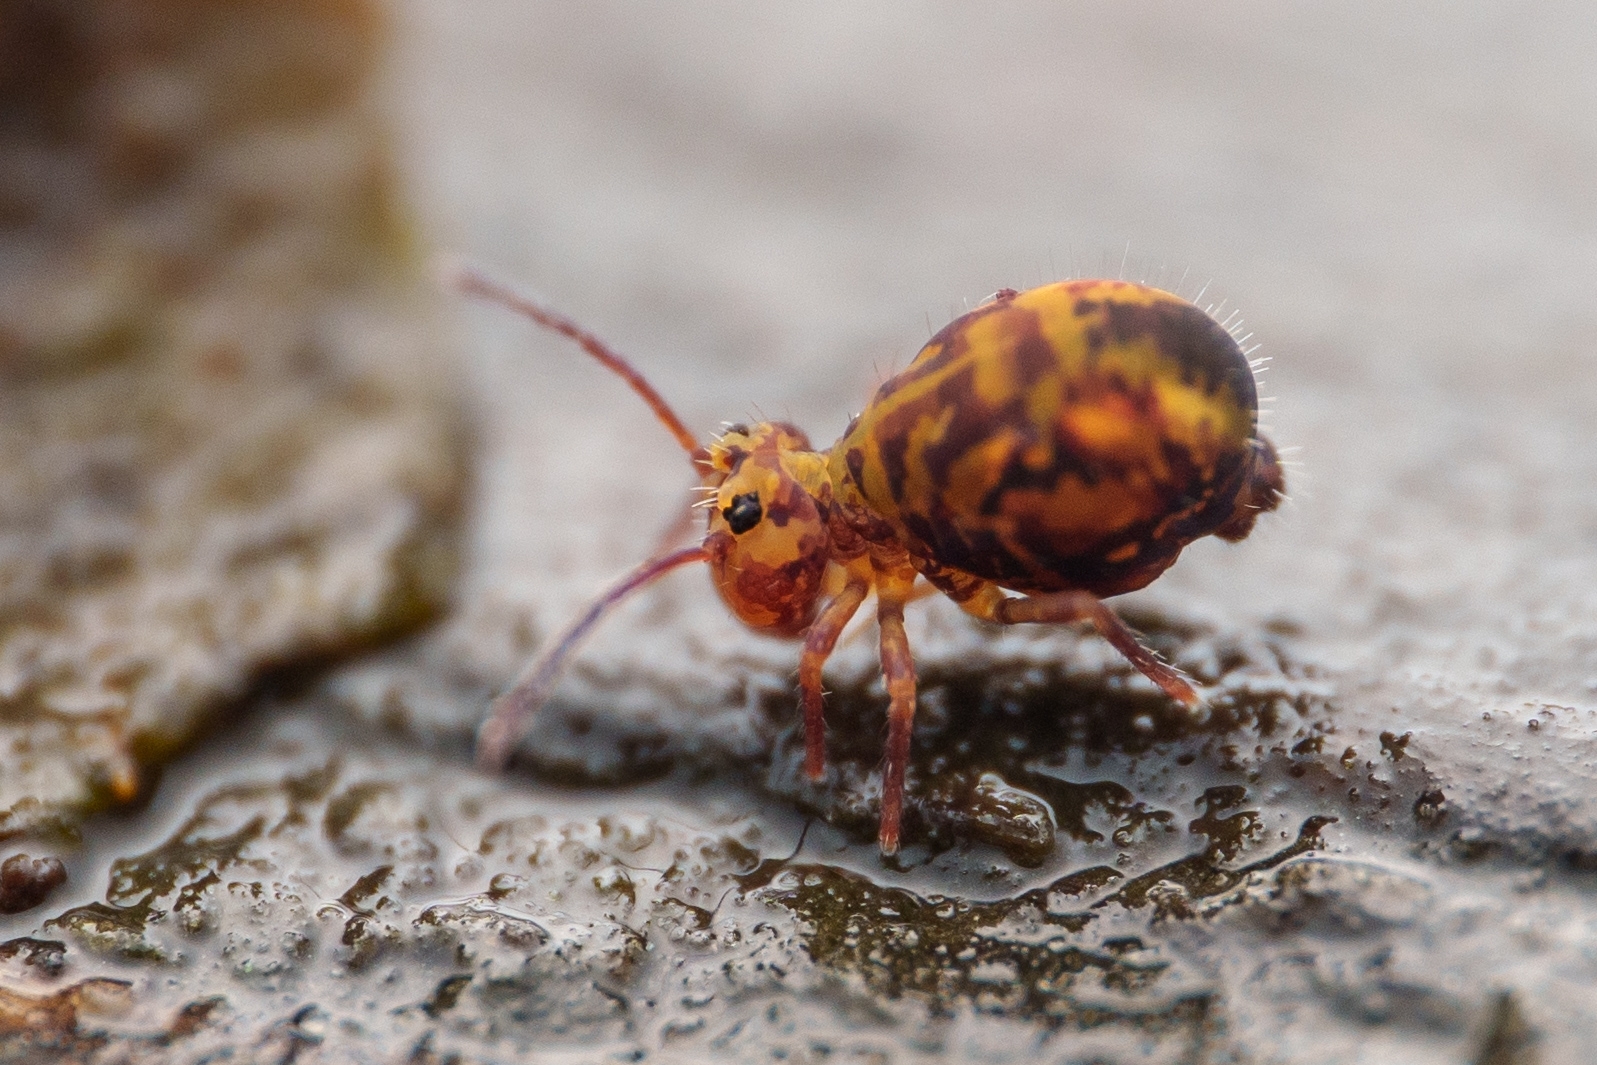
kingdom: Animalia
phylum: Arthropoda
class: Collembola
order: Symphypleona
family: Dicyrtomidae
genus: Dicyrtomina
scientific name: Dicyrtomina minuta
